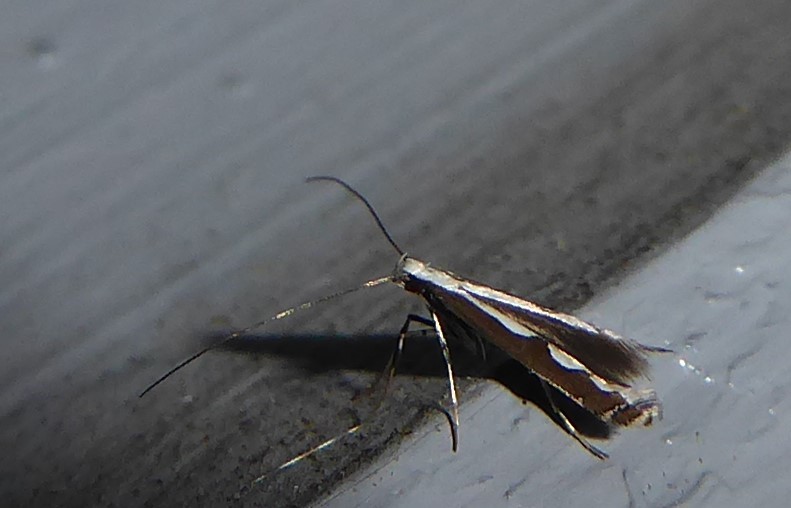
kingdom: Animalia
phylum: Arthropoda
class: Insecta
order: Lepidoptera
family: Gracillariidae
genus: Dialectica
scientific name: Dialectica scalariella
